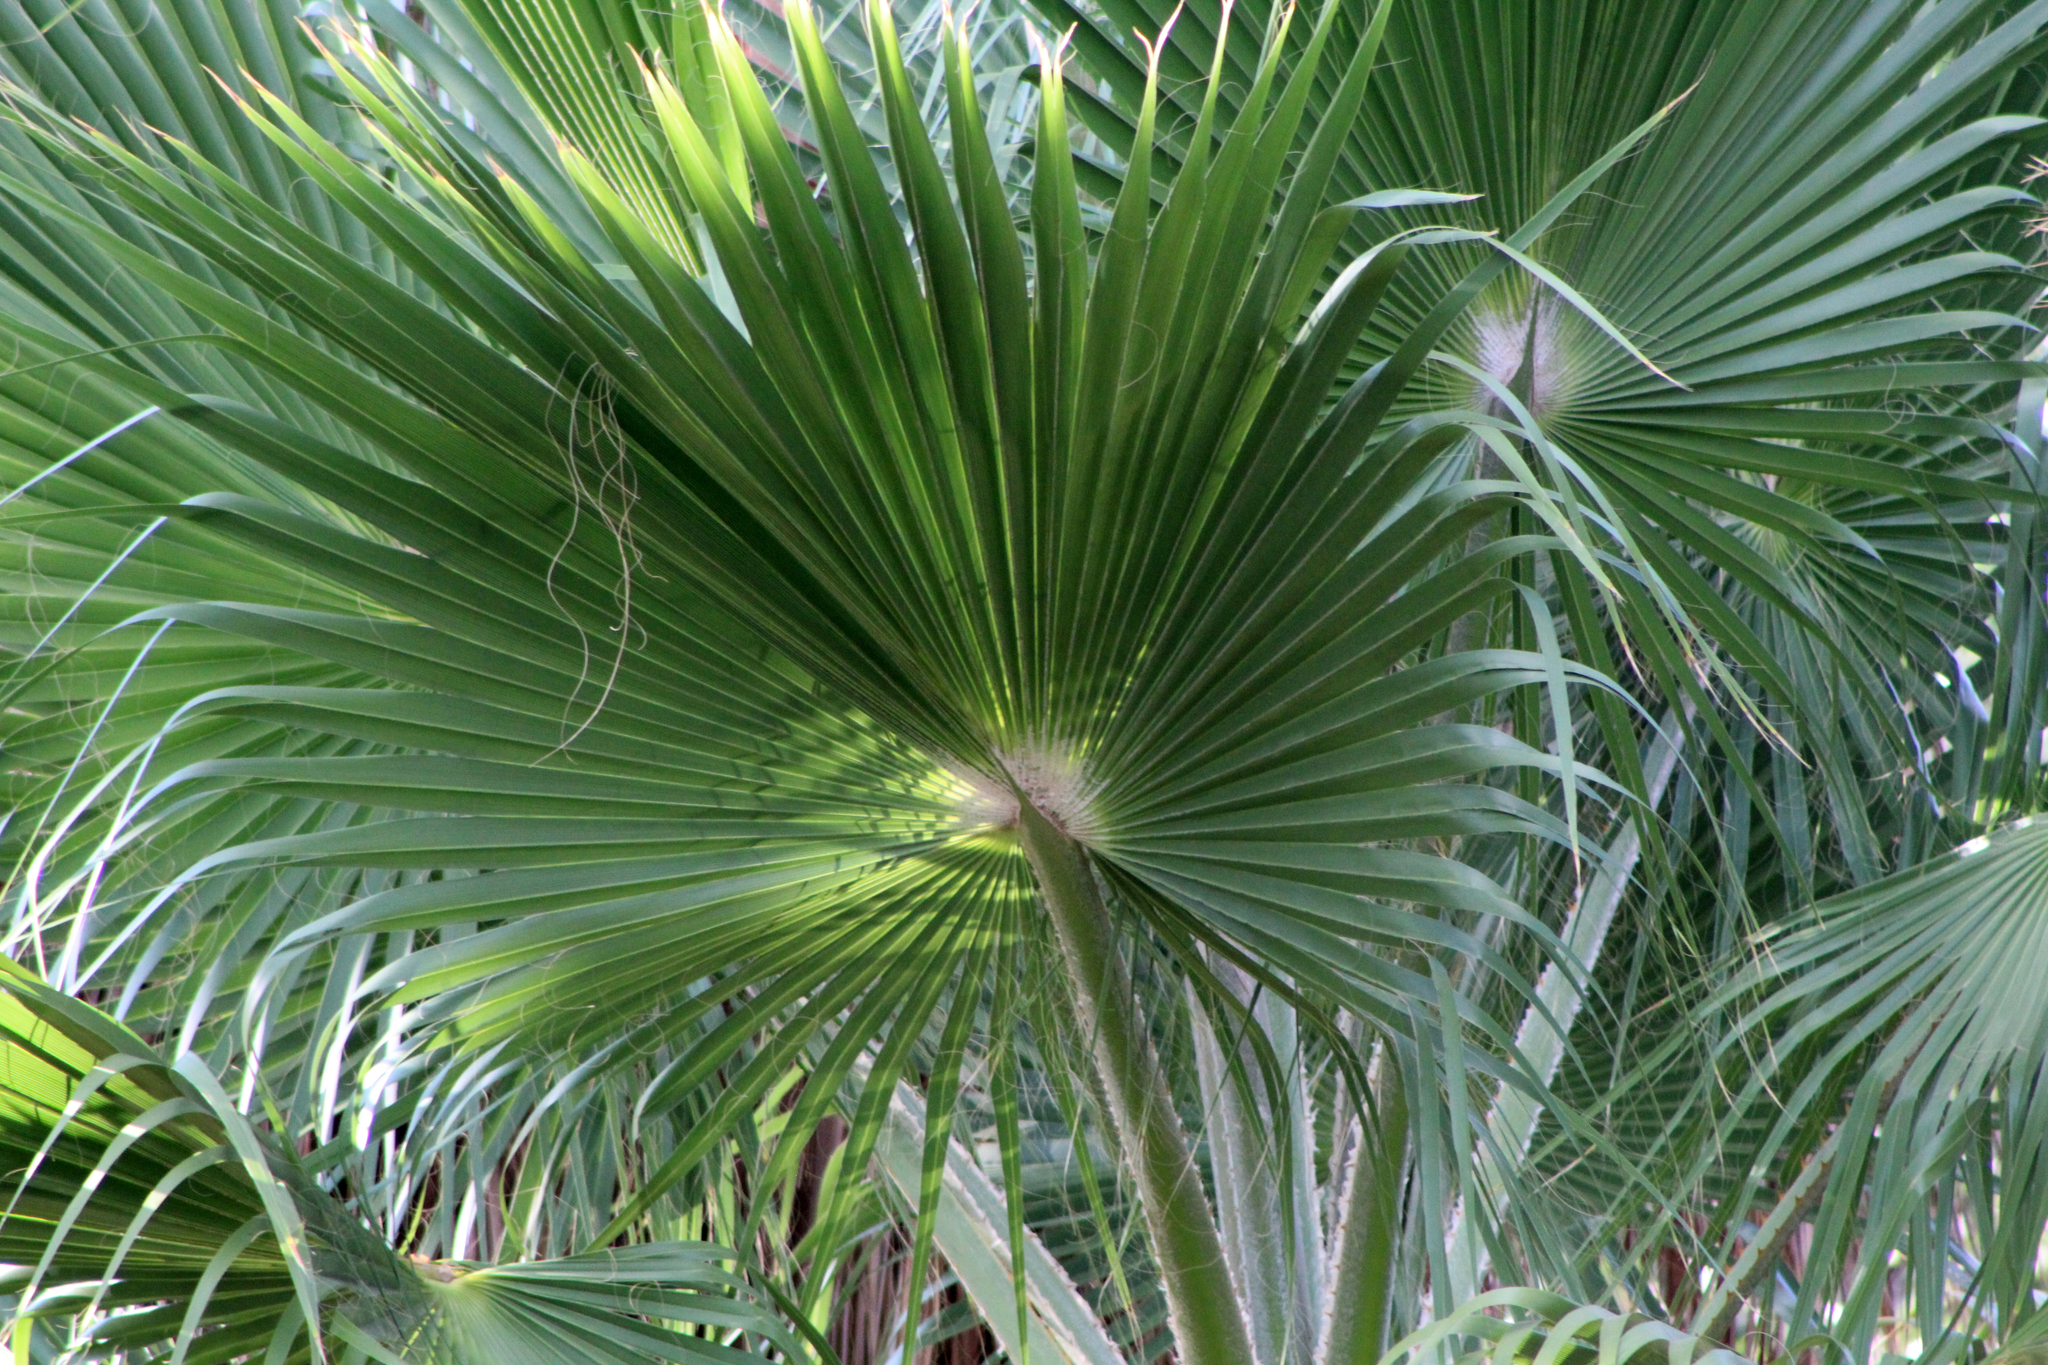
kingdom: Plantae
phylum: Tracheophyta
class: Liliopsida
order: Arecales
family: Arecaceae
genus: Washingtonia
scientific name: Washingtonia robusta
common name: Mexican fan palm
